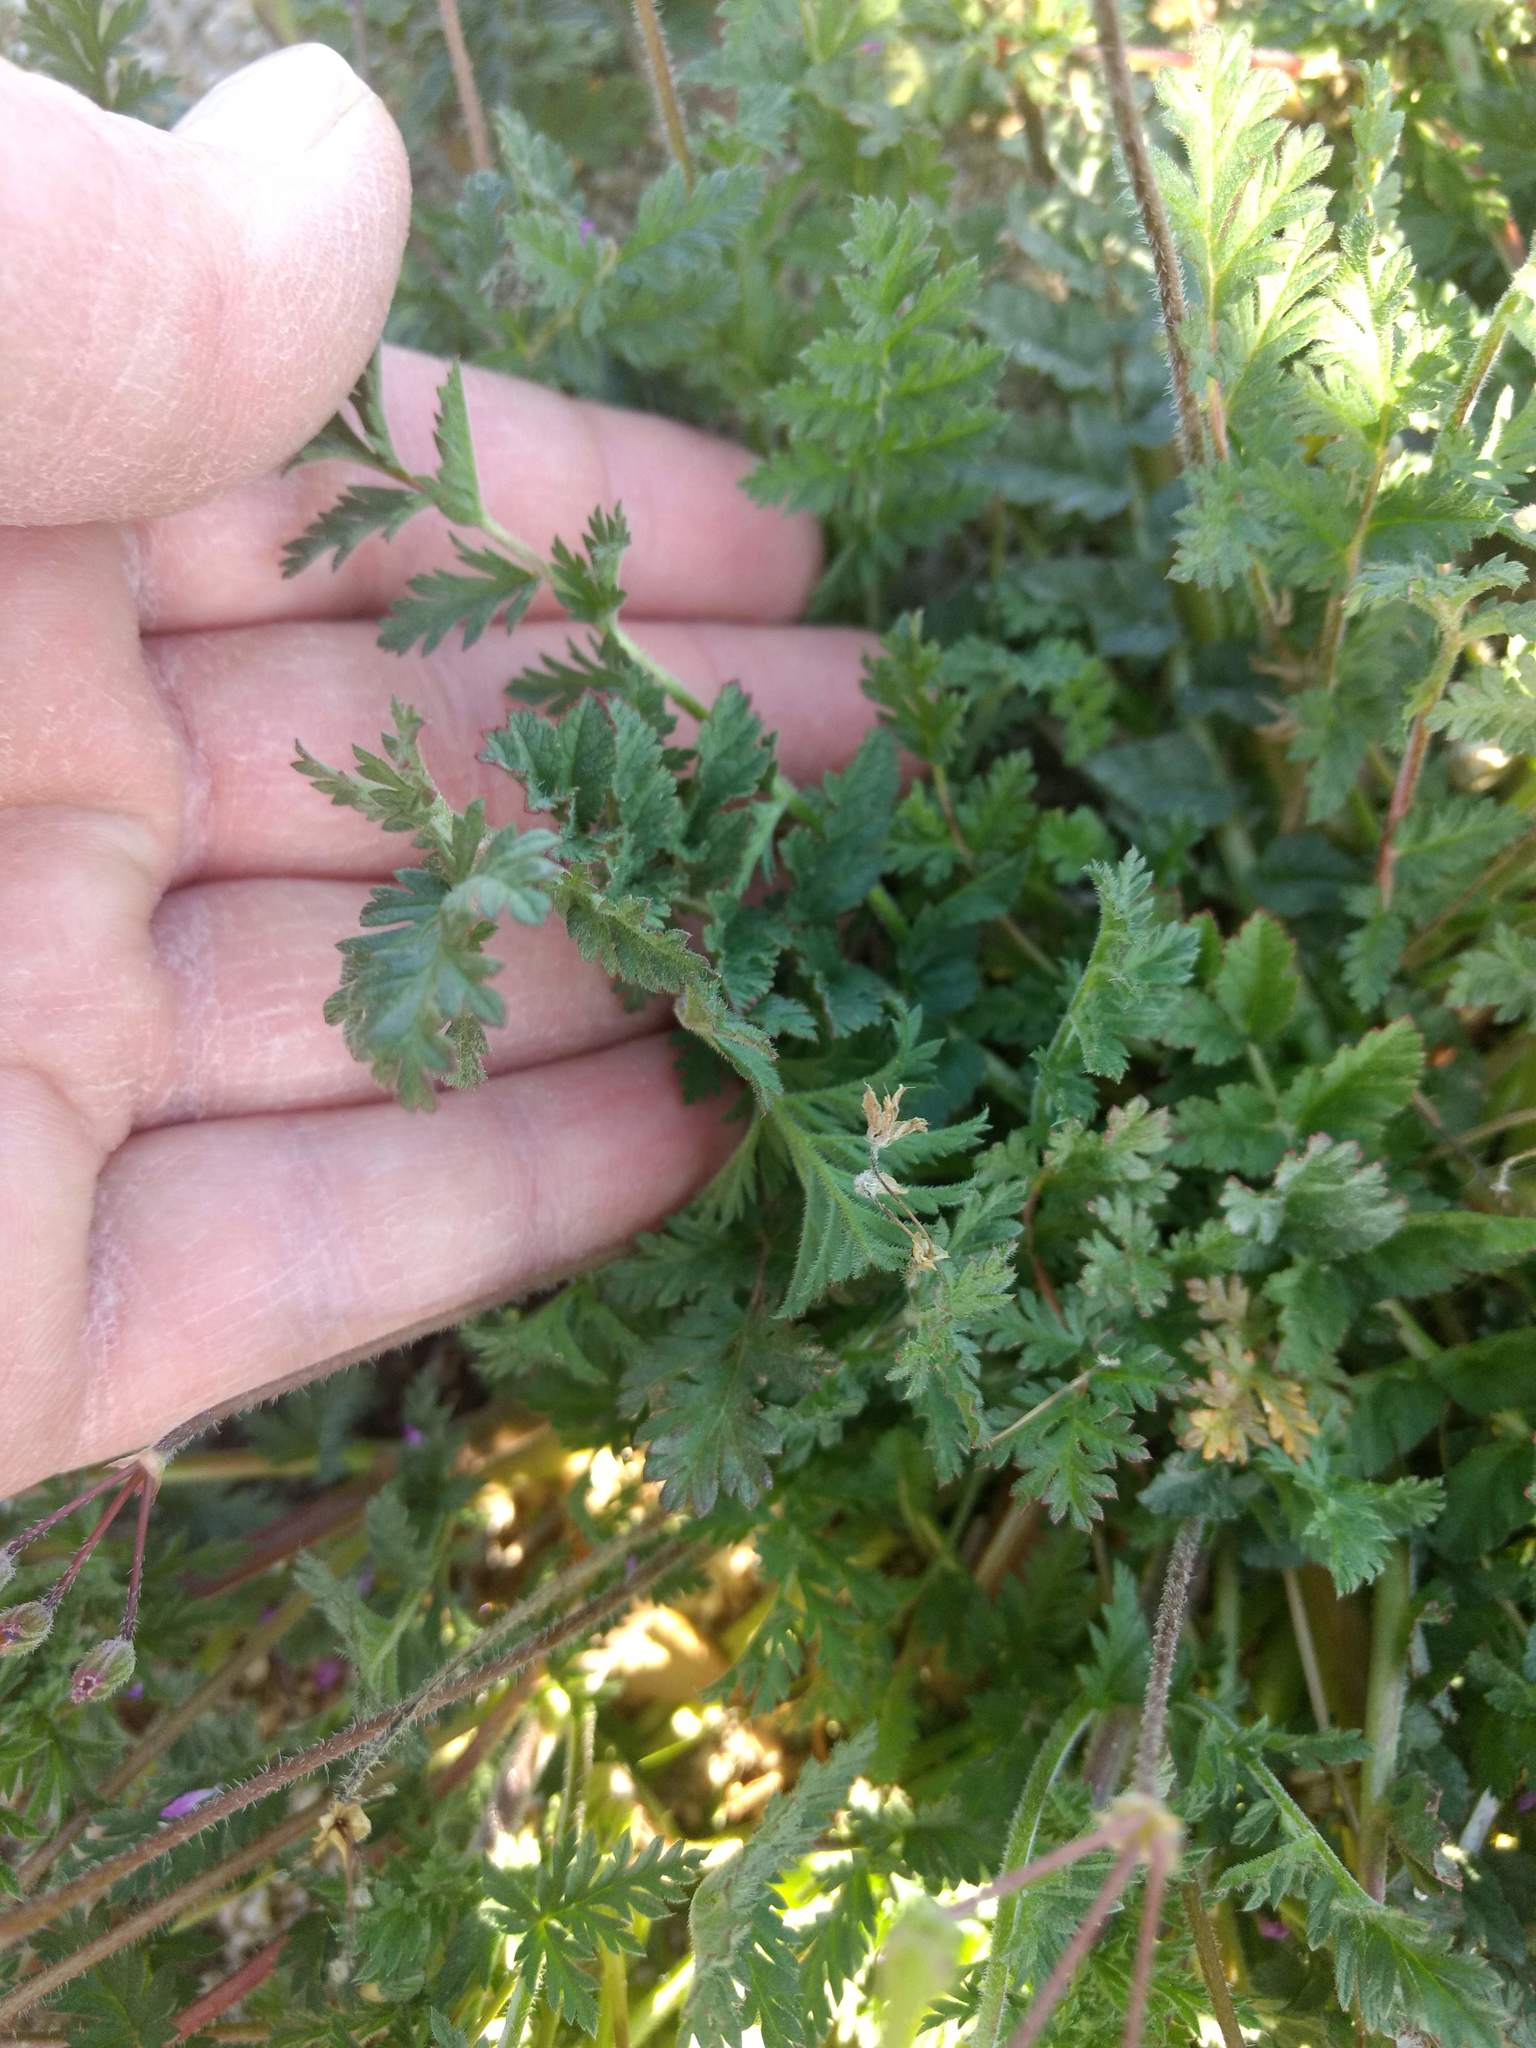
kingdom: Plantae
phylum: Tracheophyta
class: Magnoliopsida
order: Geraniales
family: Geraniaceae
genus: Erodium
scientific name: Erodium cicutarium
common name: Common stork's-bill
